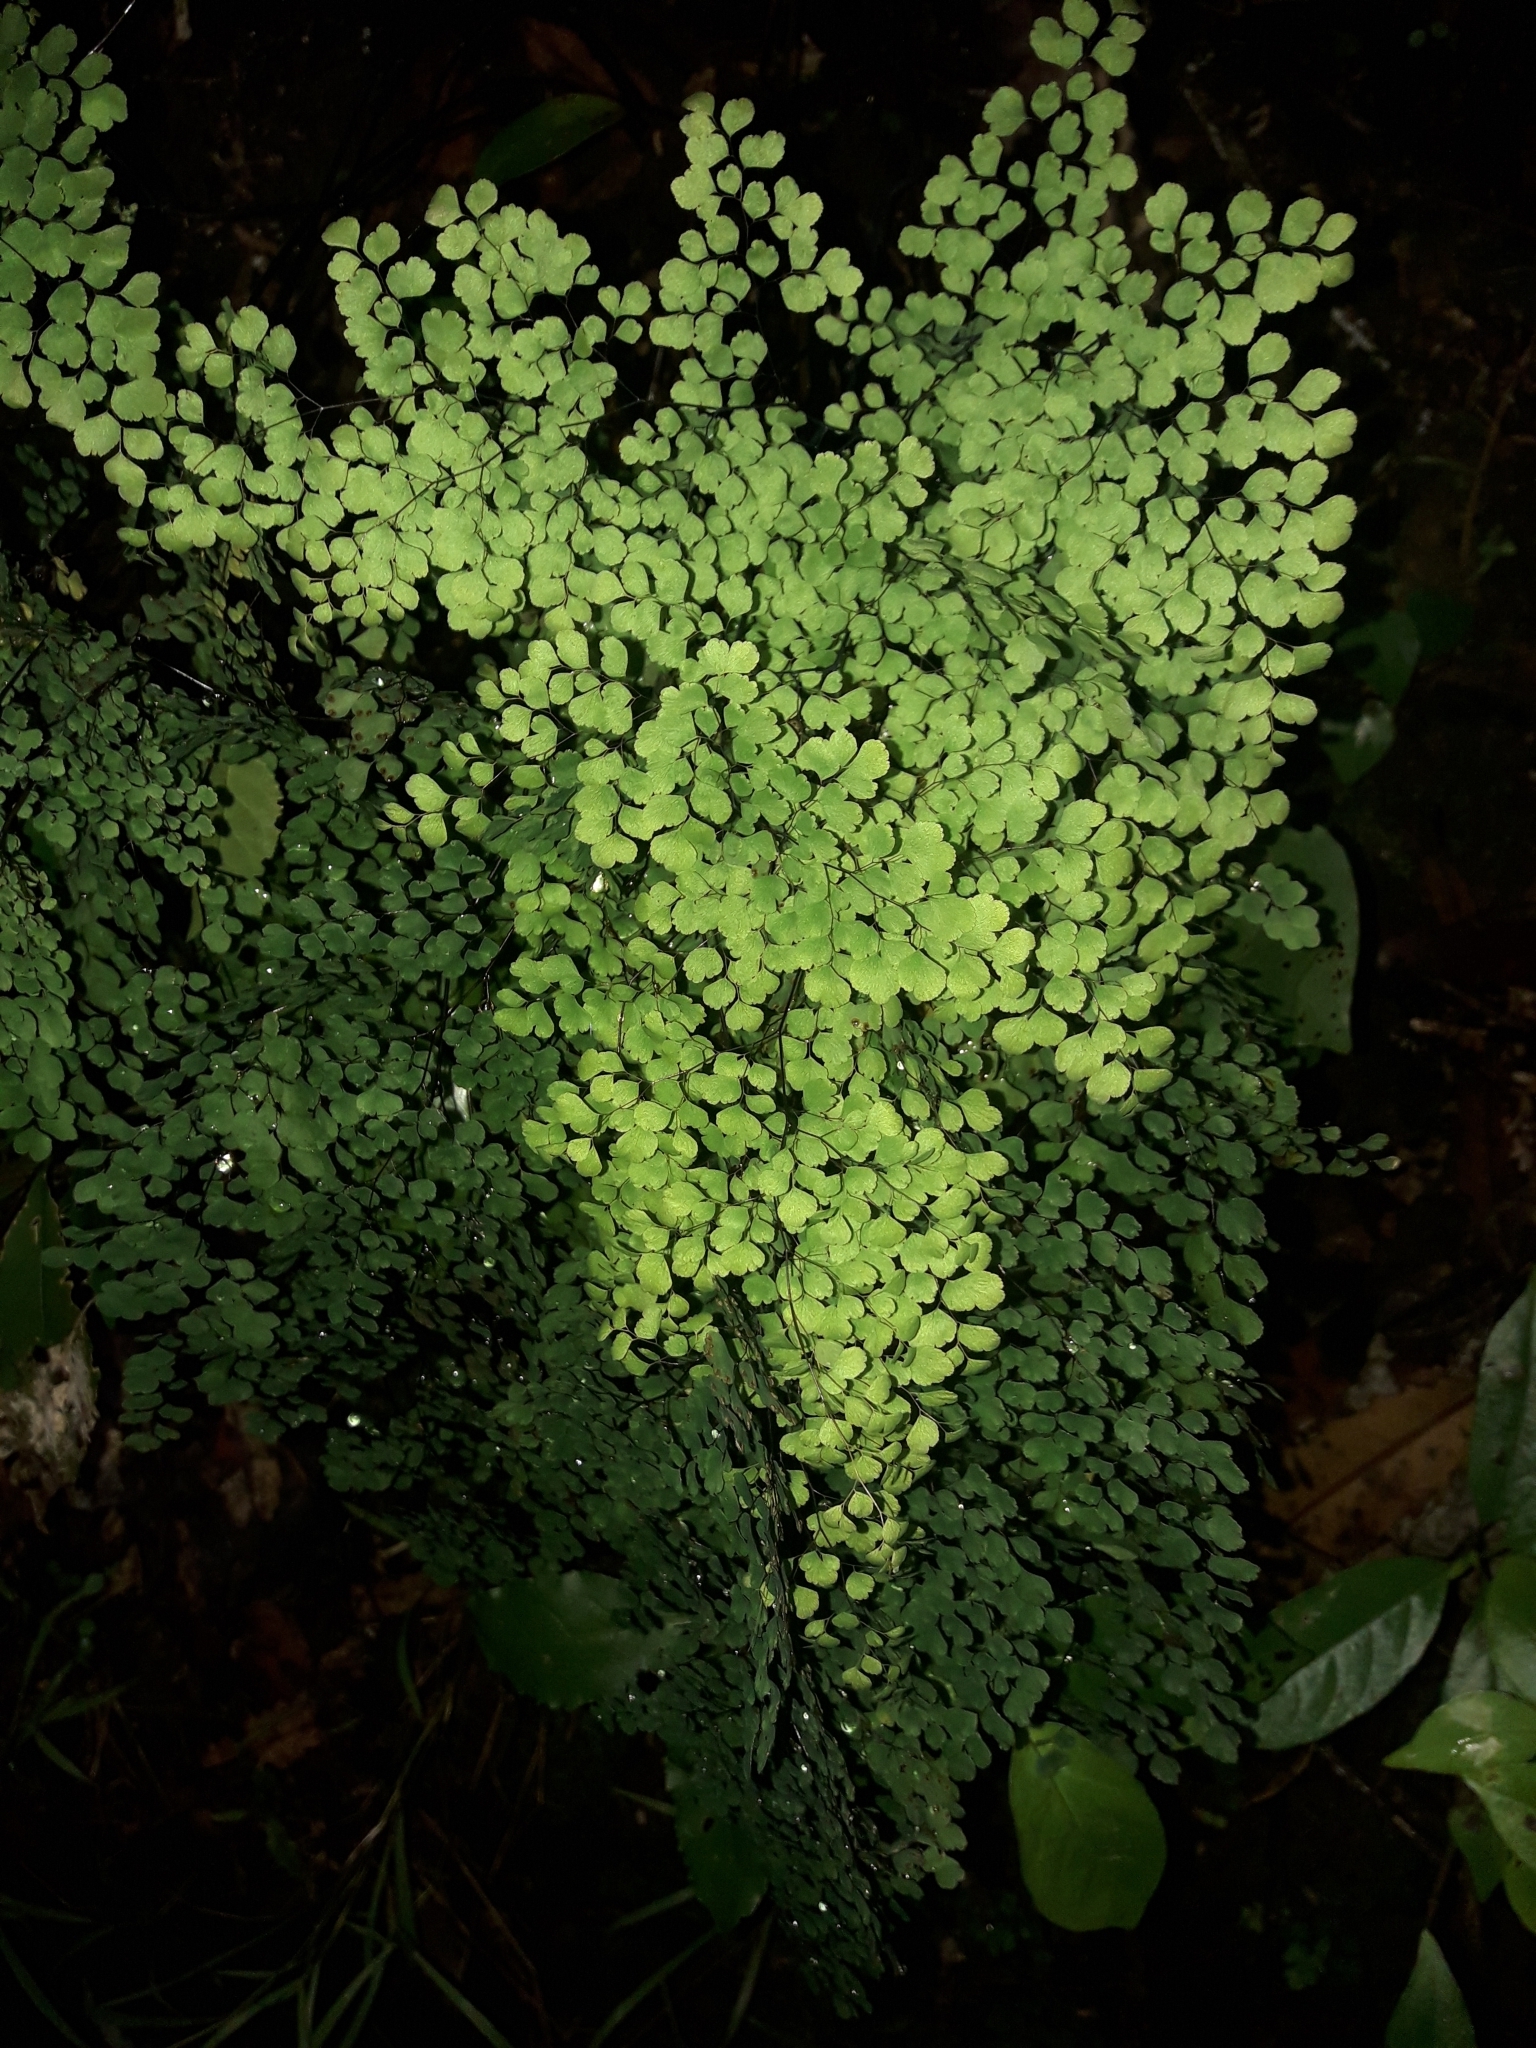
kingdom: Plantae
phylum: Tracheophyta
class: Polypodiopsida
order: Polypodiales
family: Pteridaceae
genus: Adiantum
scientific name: Adiantum raddianum
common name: Delta maidenhair fern
